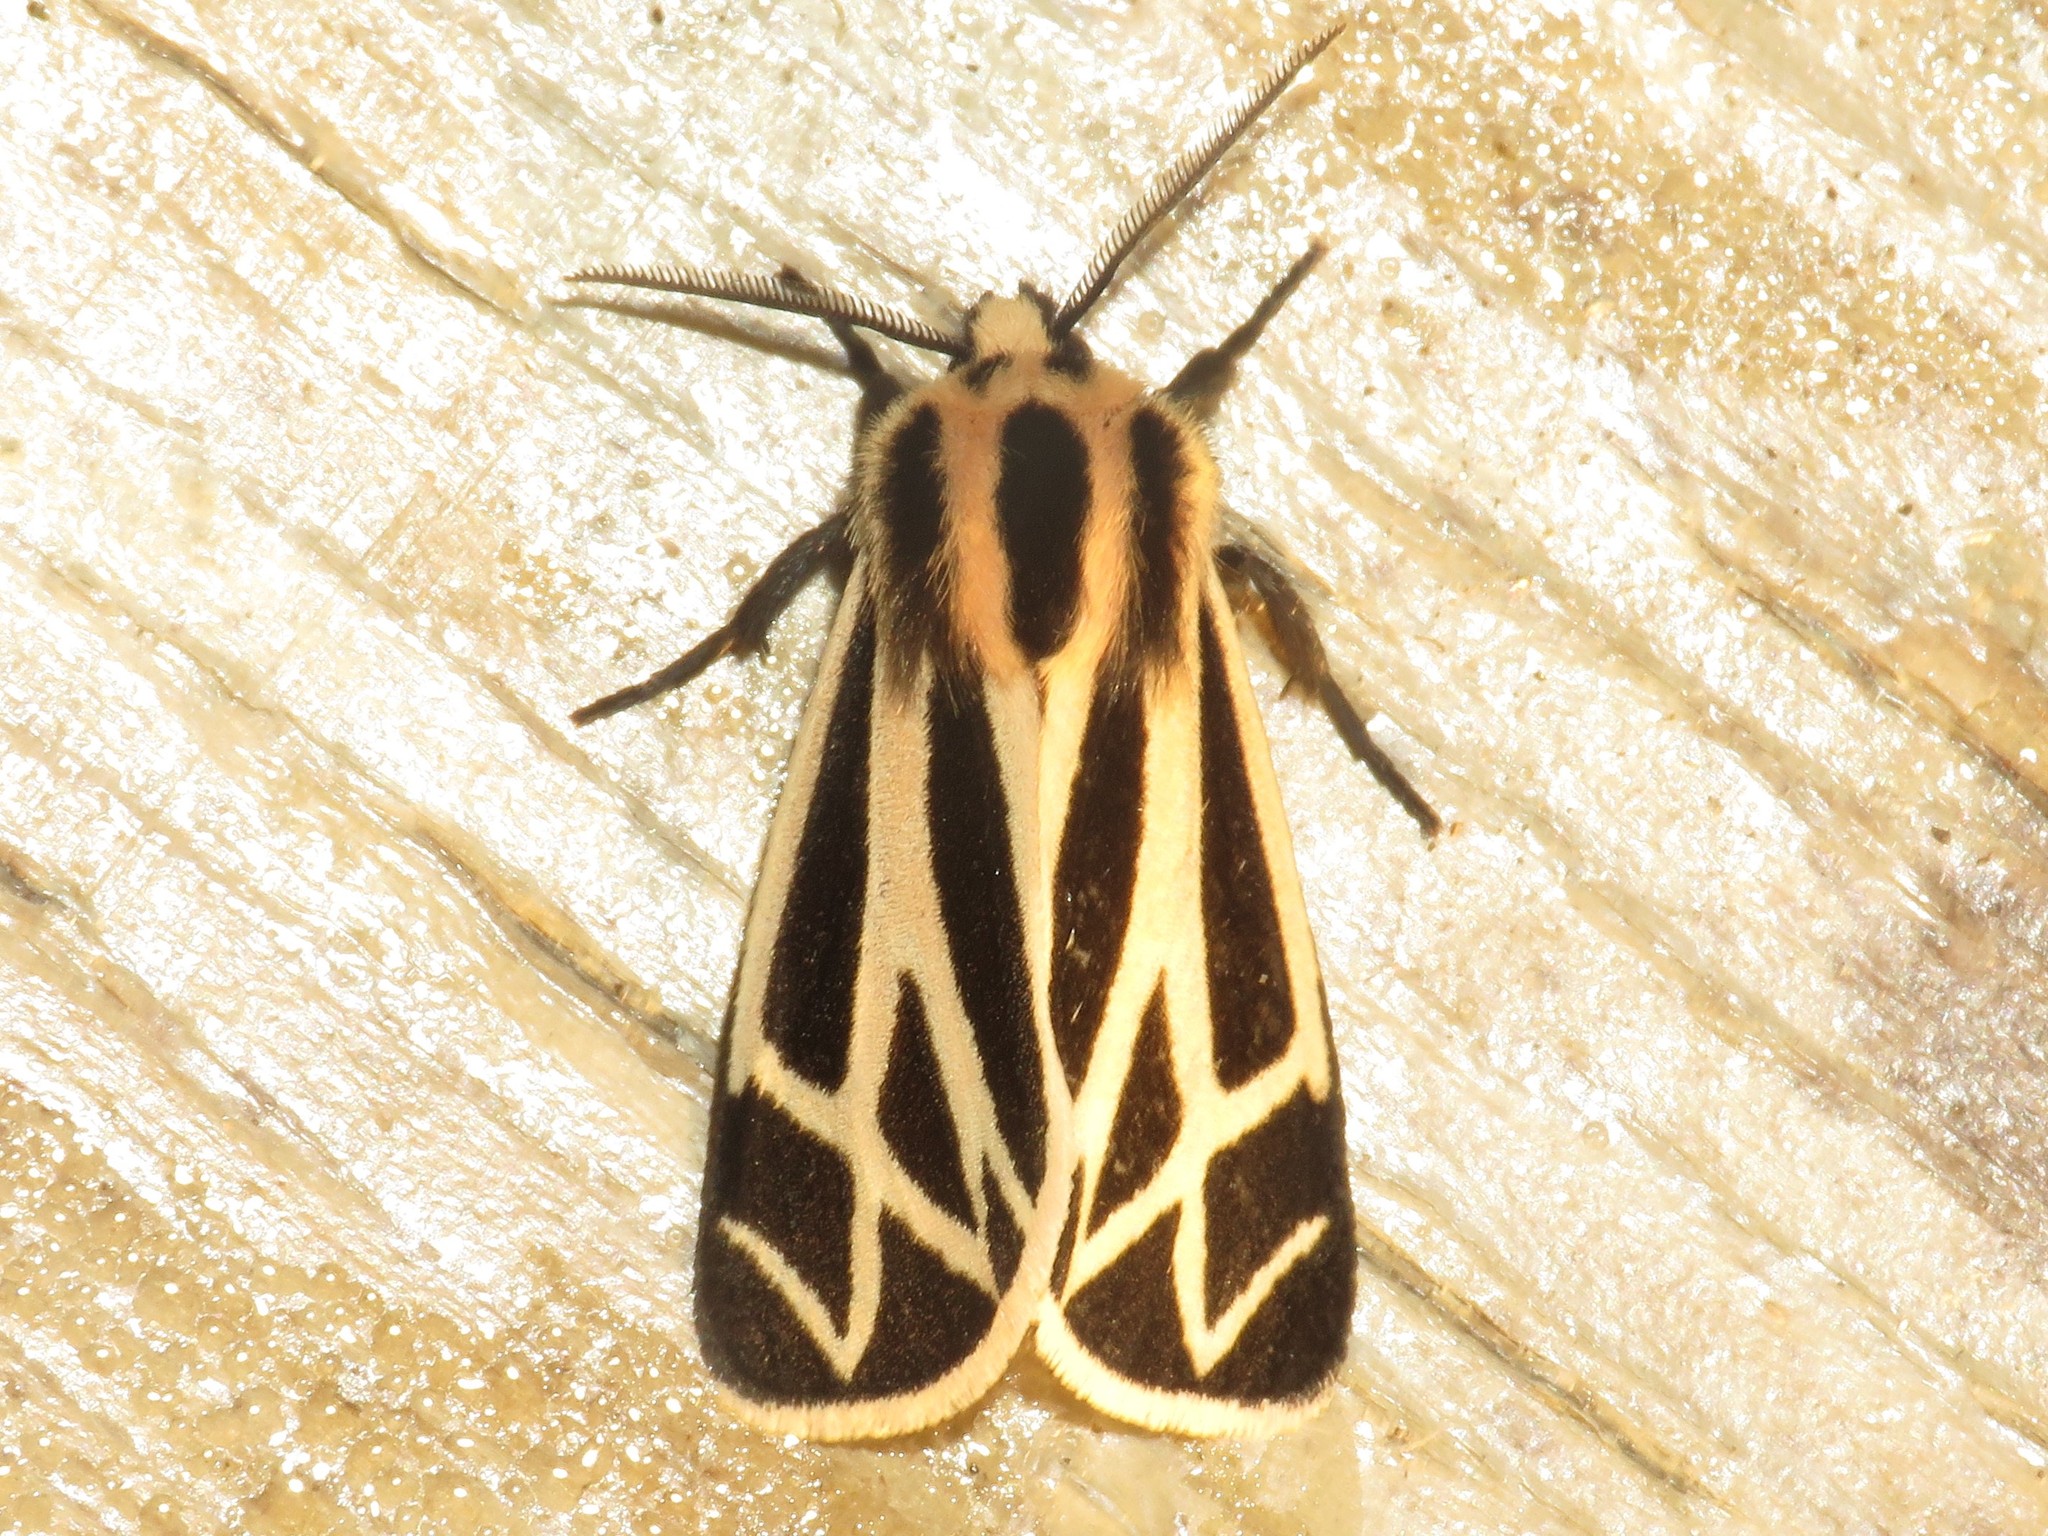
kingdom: Animalia
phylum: Arthropoda
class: Insecta
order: Lepidoptera
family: Erebidae
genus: Apantesis
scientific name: Apantesis phalerata
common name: Harnessed tiger moth
